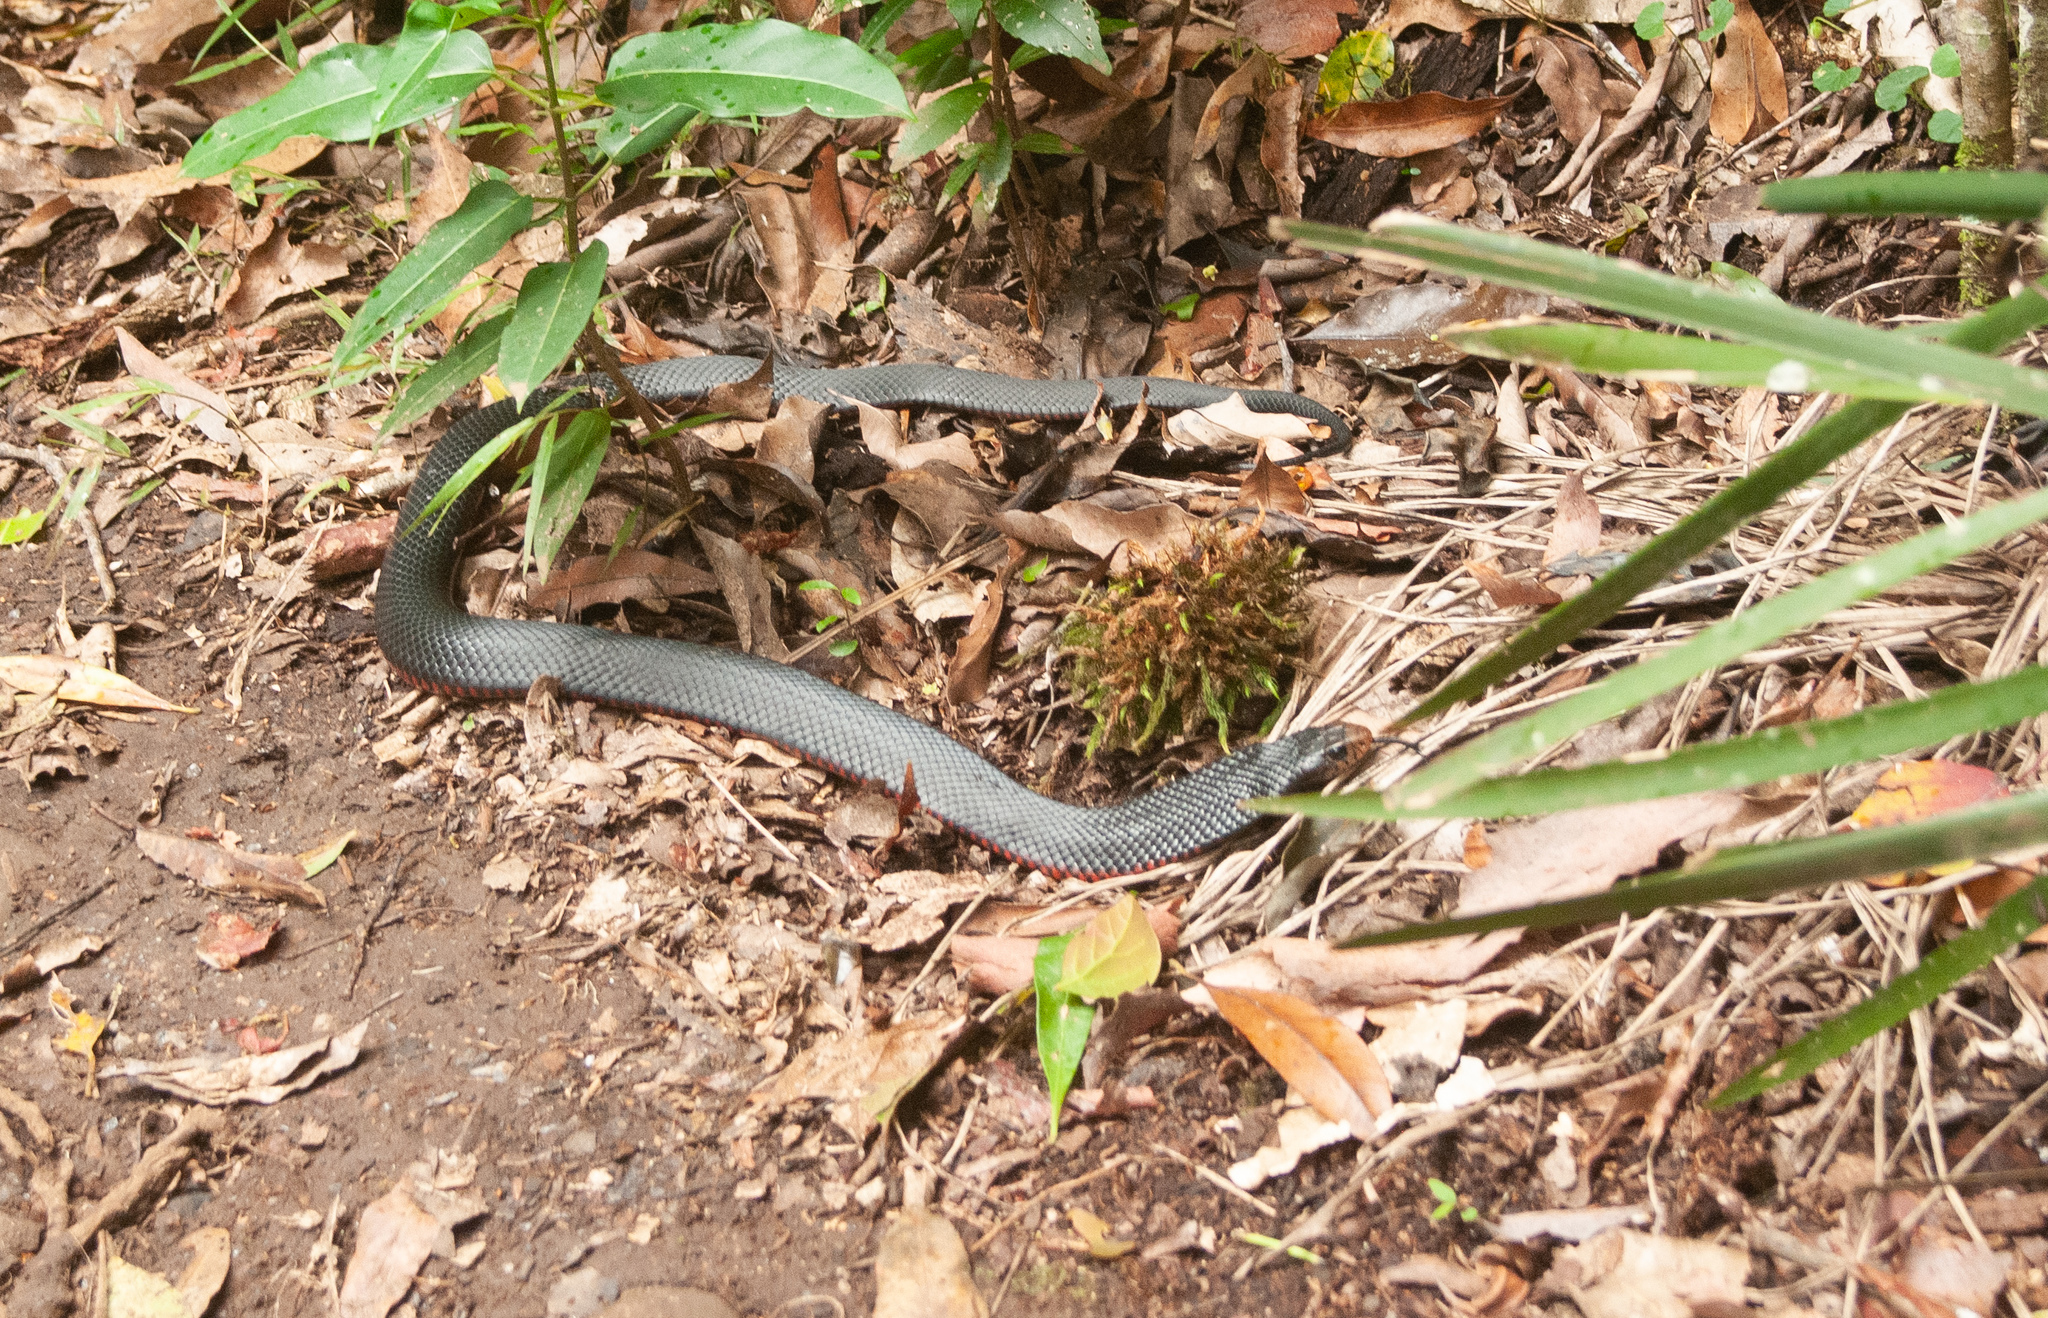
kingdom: Animalia
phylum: Chordata
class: Squamata
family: Elapidae
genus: Pseudechis
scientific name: Pseudechis porphyriacus
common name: Australian black snake
